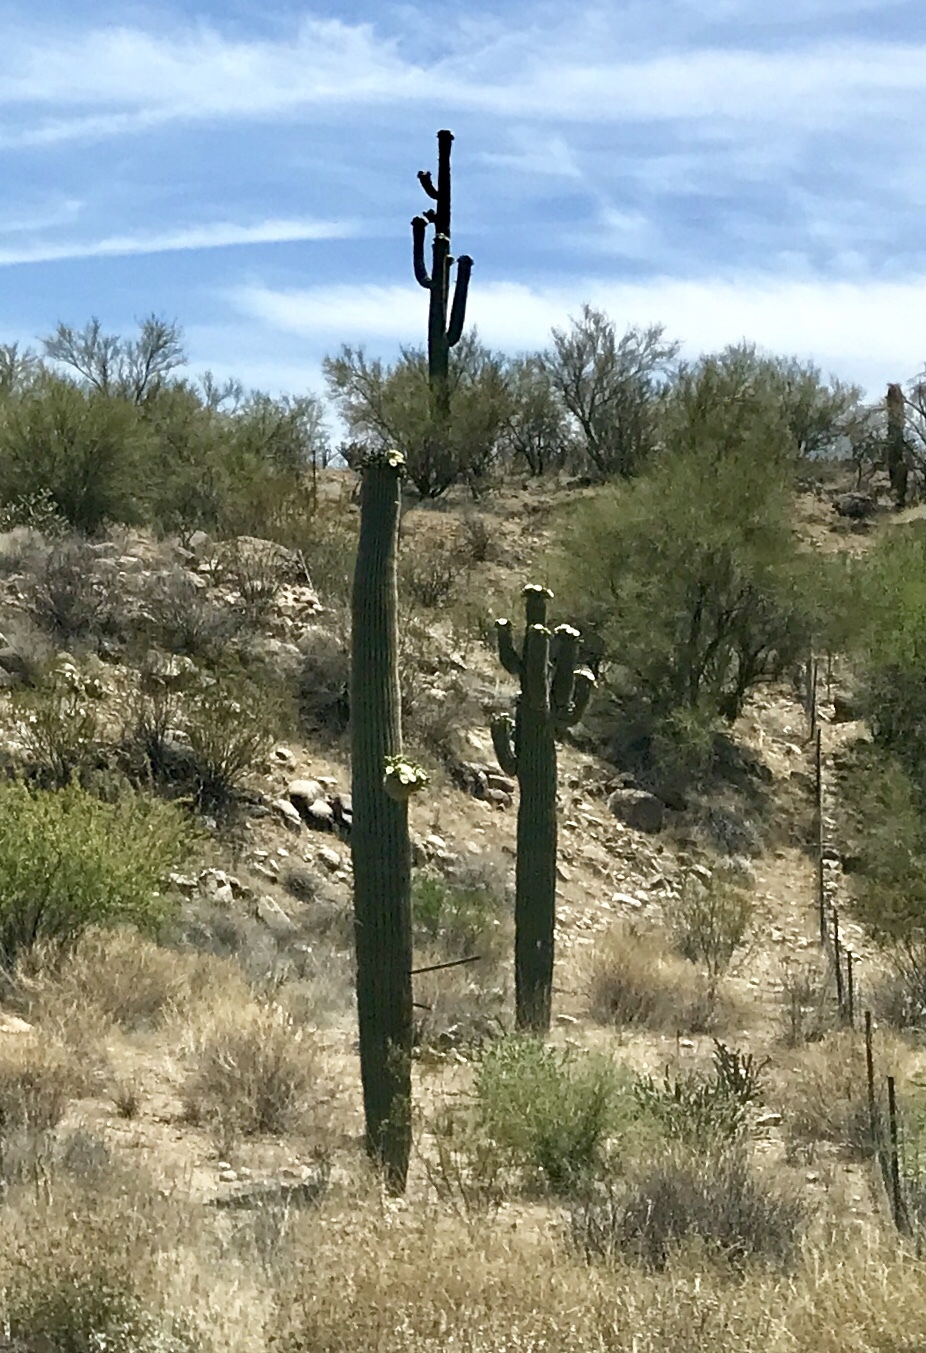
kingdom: Plantae
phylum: Tracheophyta
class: Magnoliopsida
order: Caryophyllales
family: Cactaceae
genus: Carnegiea
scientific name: Carnegiea gigantea
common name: Saguaro
